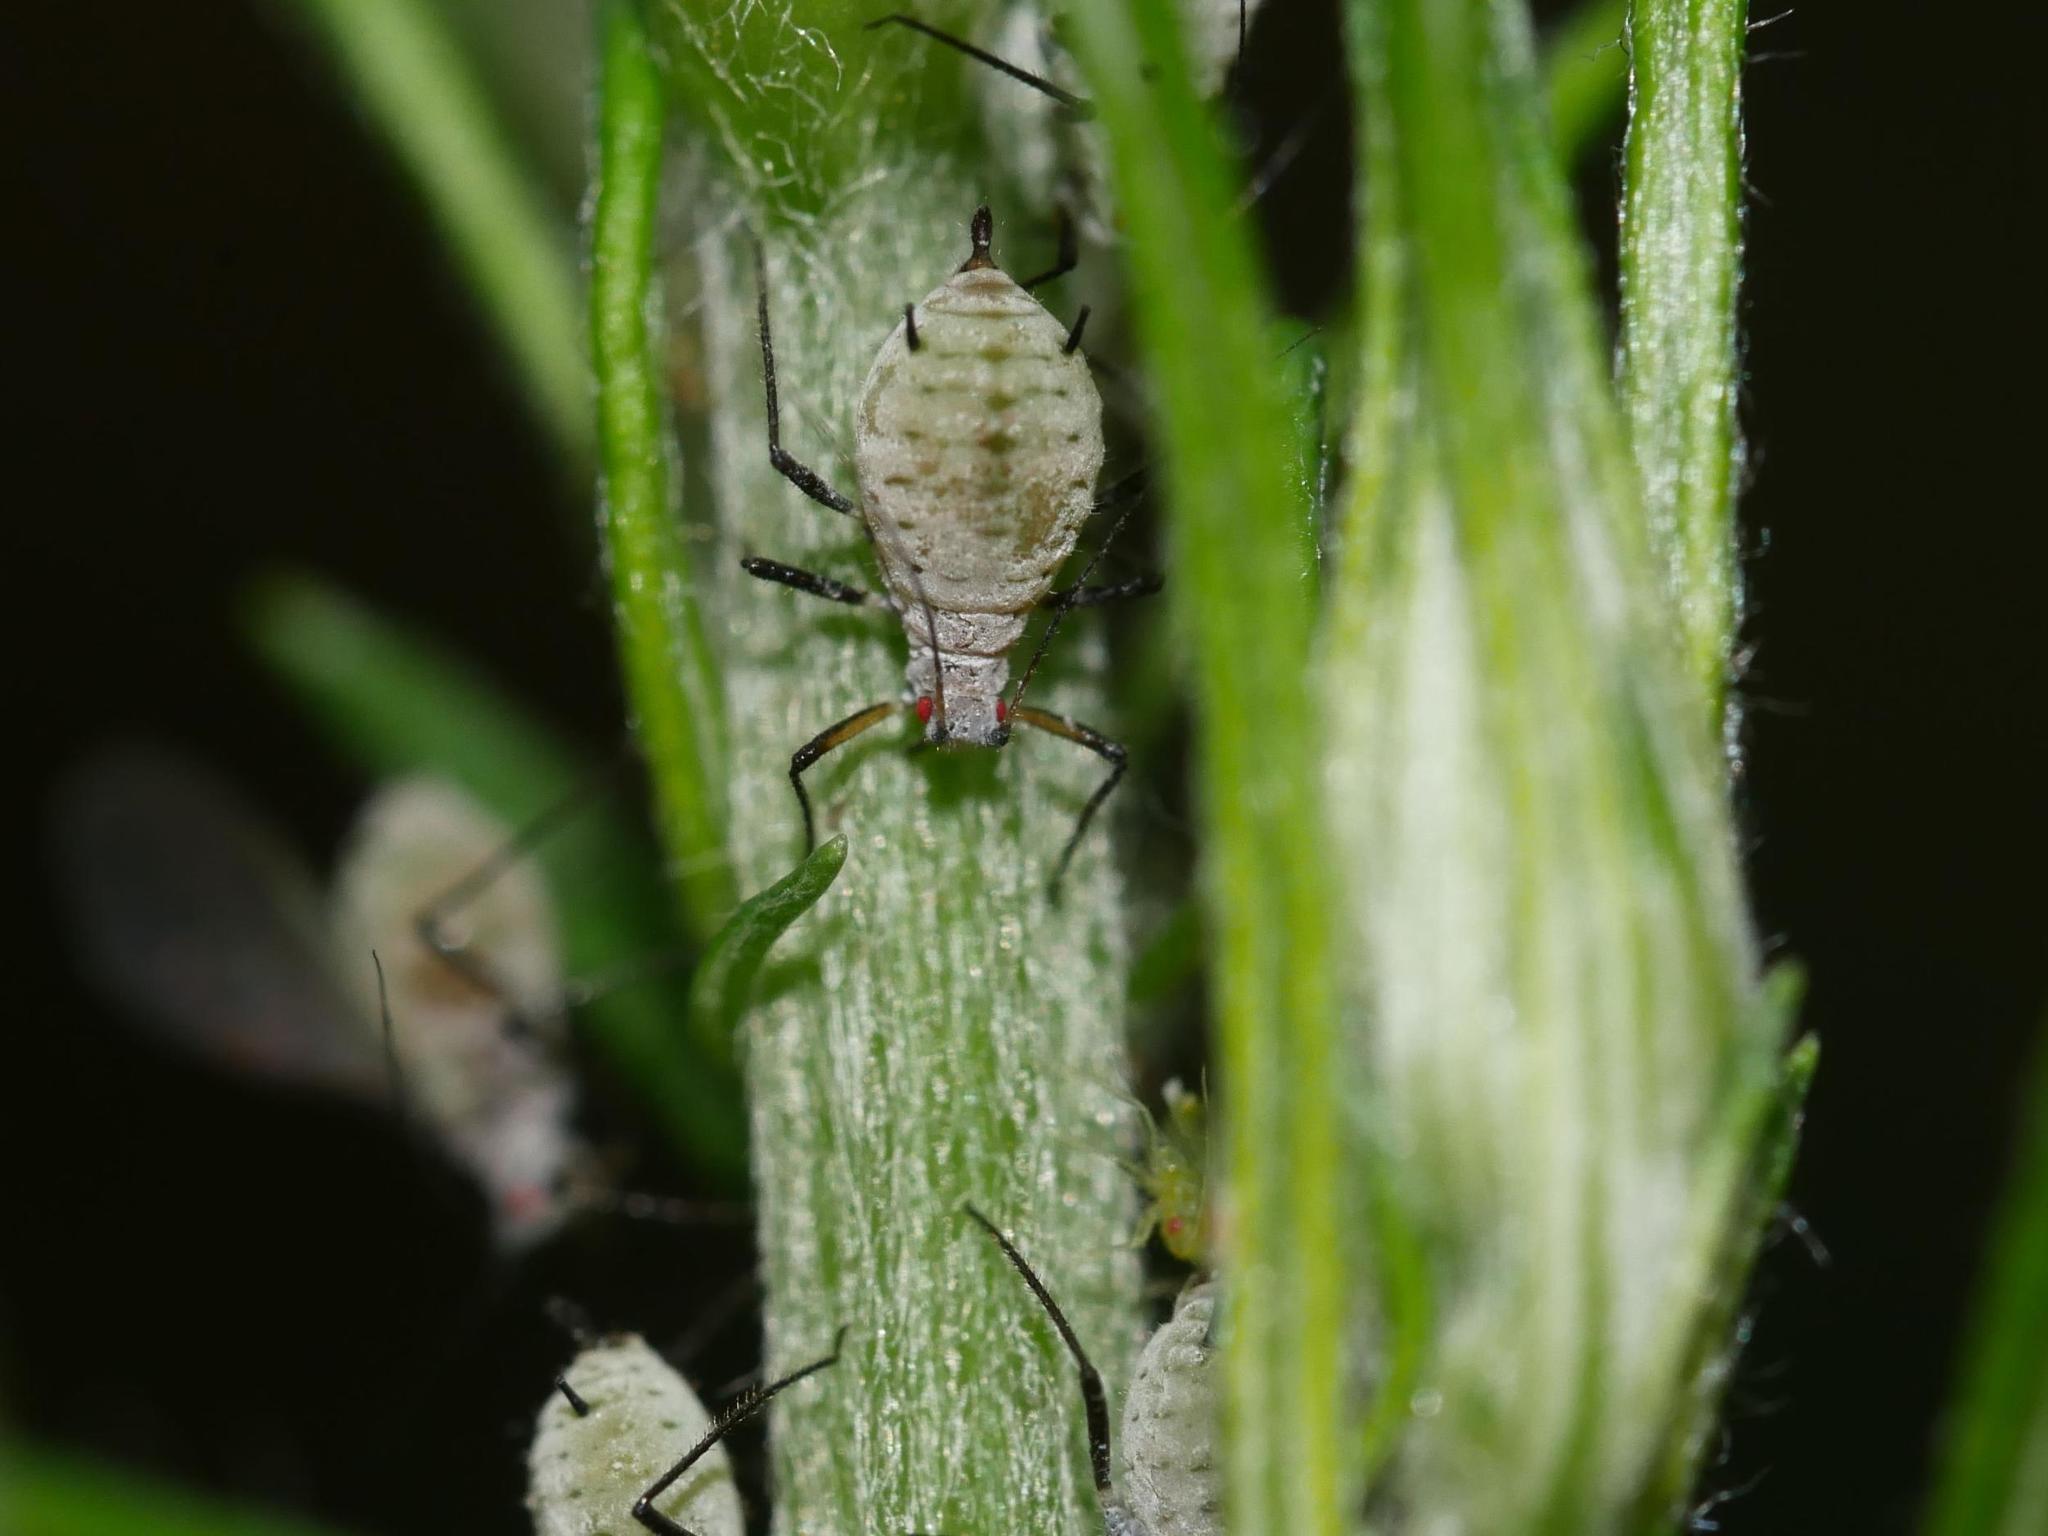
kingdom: Animalia
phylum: Arthropoda
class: Insecta
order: Hemiptera
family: Aphididae
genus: Macrosiphoniella
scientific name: Macrosiphoniella artemisiae
